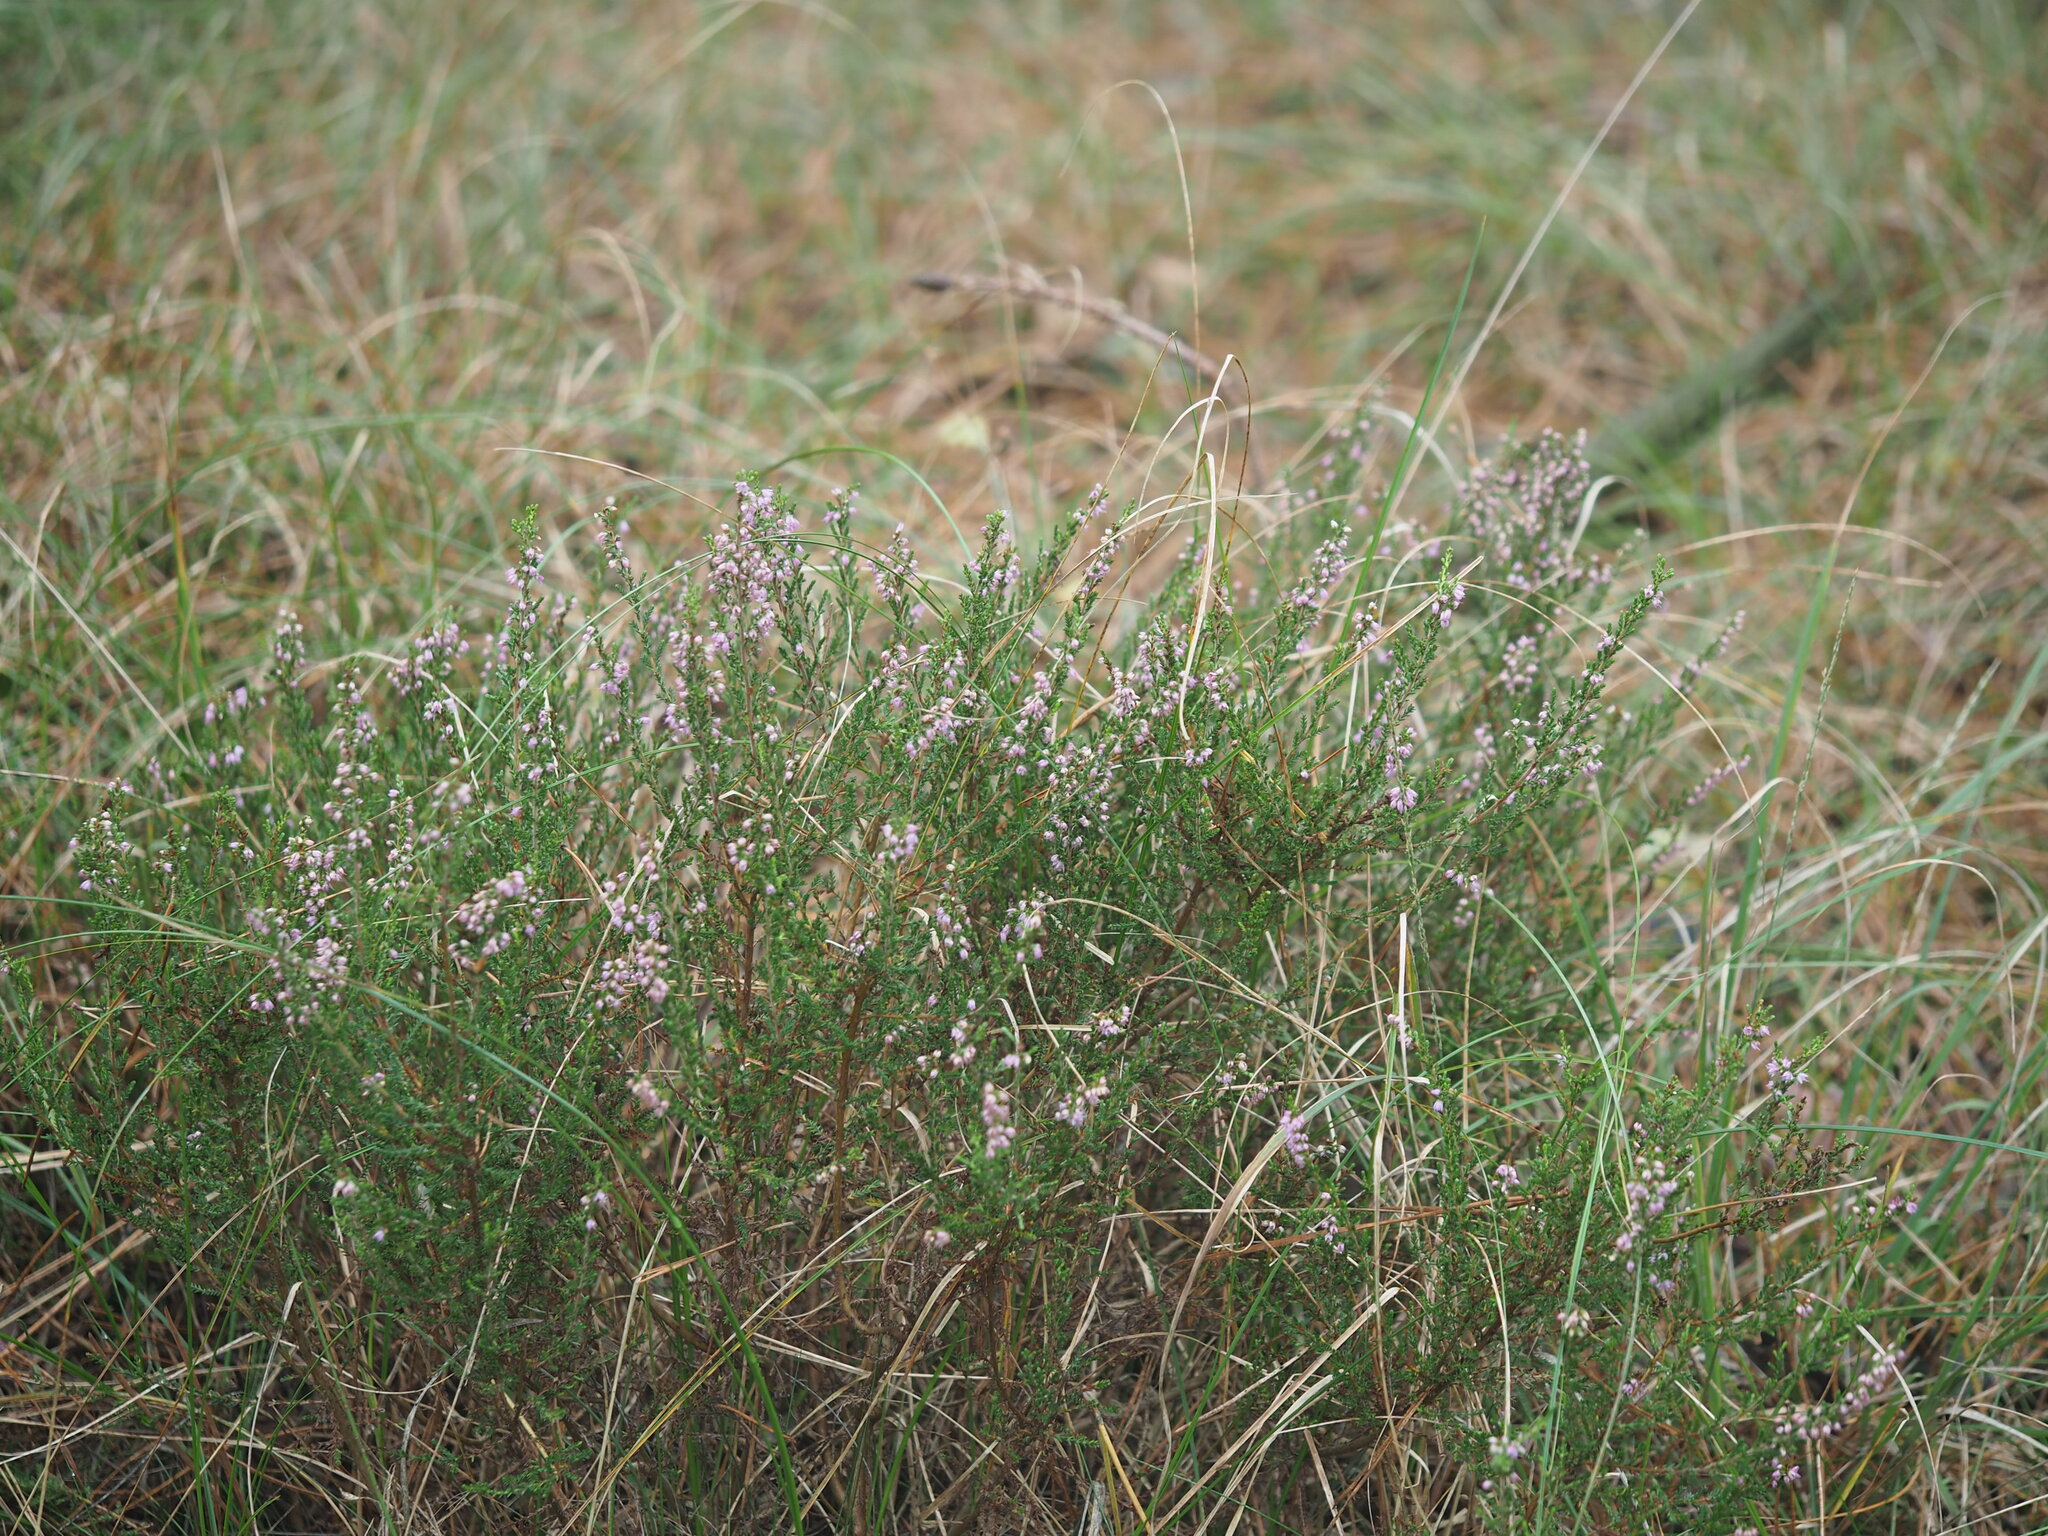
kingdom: Plantae
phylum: Tracheophyta
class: Magnoliopsida
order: Ericales
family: Ericaceae
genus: Calluna
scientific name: Calluna vulgaris
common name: Heather
